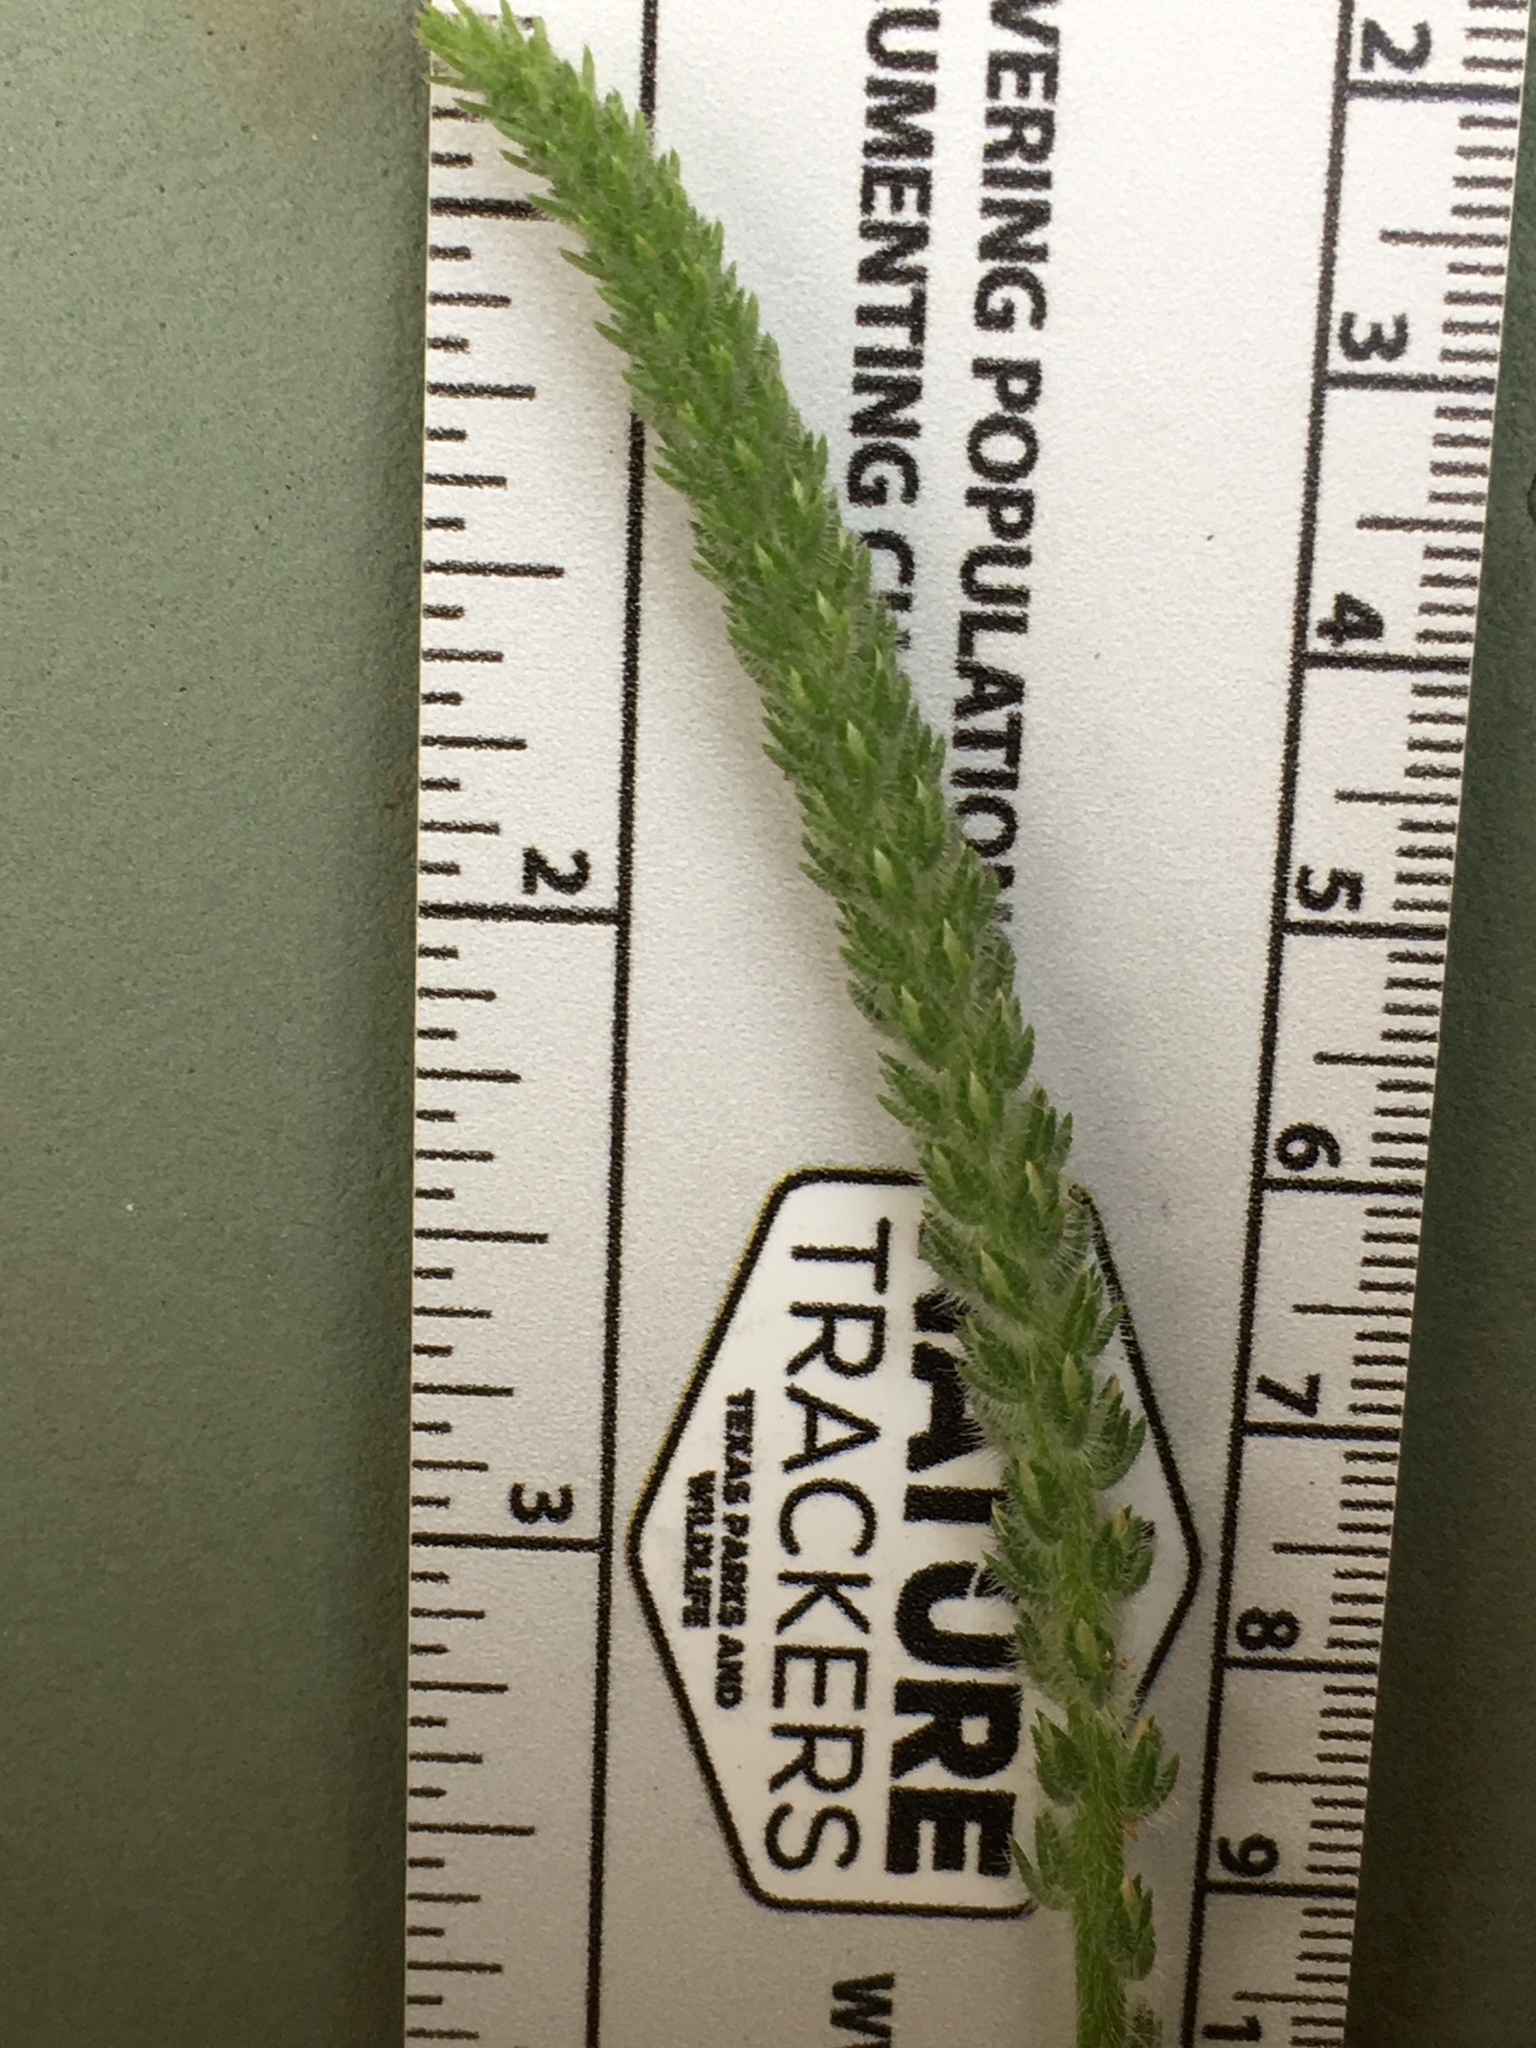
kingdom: Plantae
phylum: Tracheophyta
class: Magnoliopsida
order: Lamiales
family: Plantaginaceae
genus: Plantago
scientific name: Plantago virginica
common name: Hoary plantain
